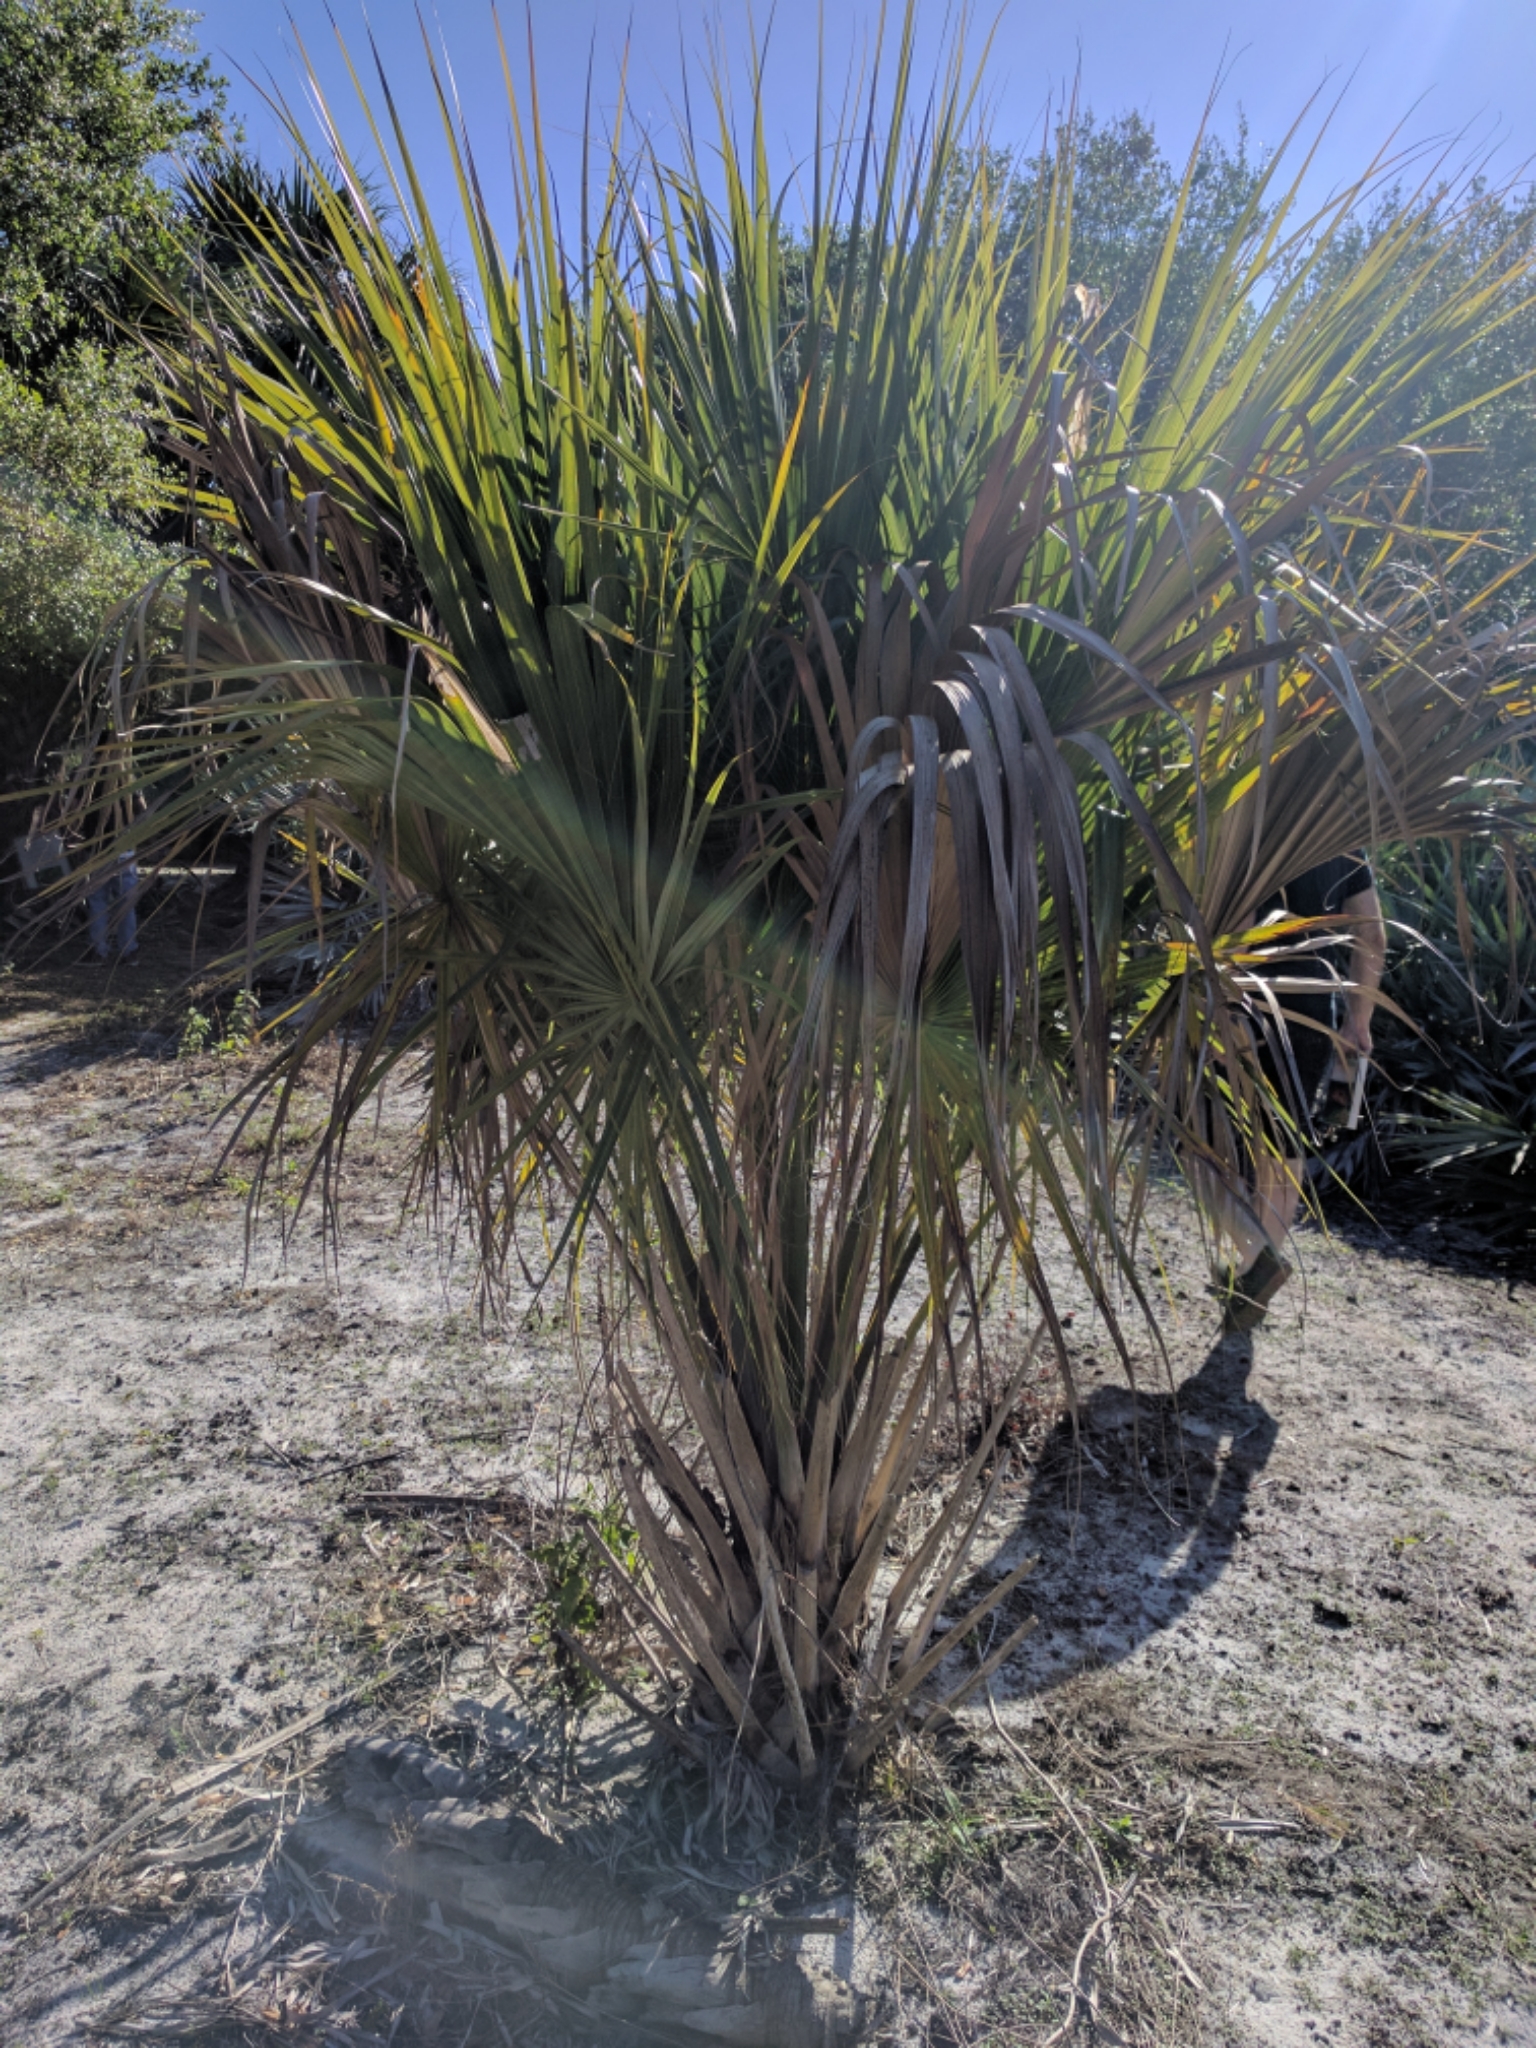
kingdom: Plantae
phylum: Tracheophyta
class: Liliopsida
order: Arecales
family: Arecaceae
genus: Sabal
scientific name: Sabal palmetto
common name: Blue palmetto
